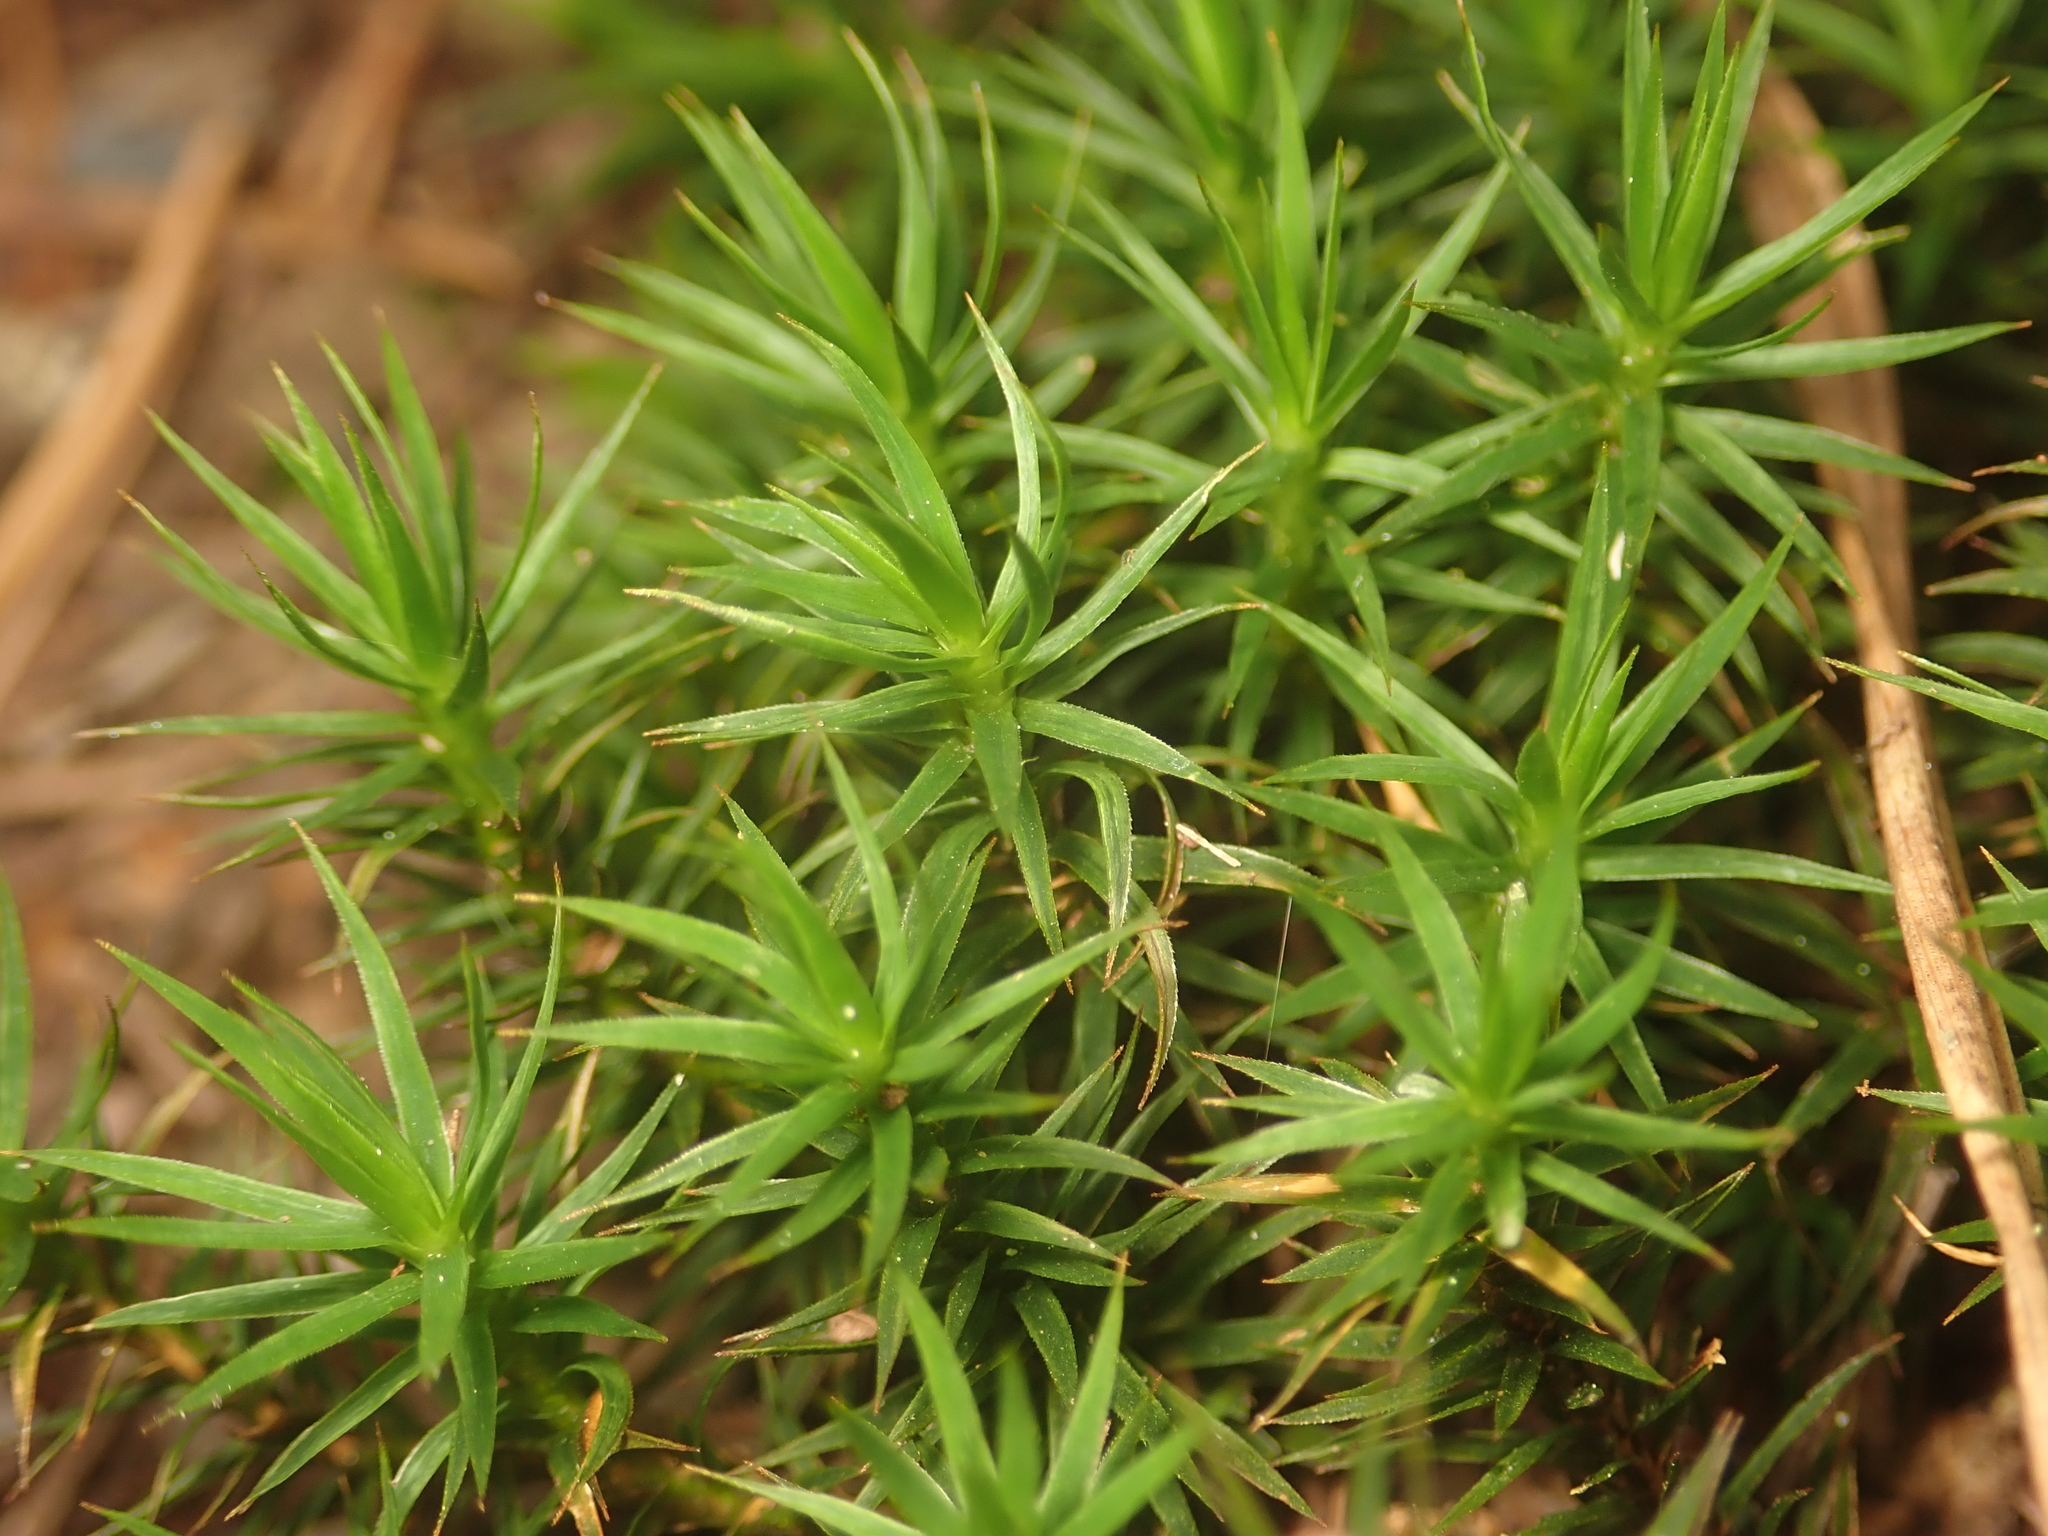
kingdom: Plantae
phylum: Bryophyta
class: Polytrichopsida
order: Polytrichales
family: Polytrichaceae
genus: Polytrichum
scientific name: Polytrichum formosum
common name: Bank haircap moss
